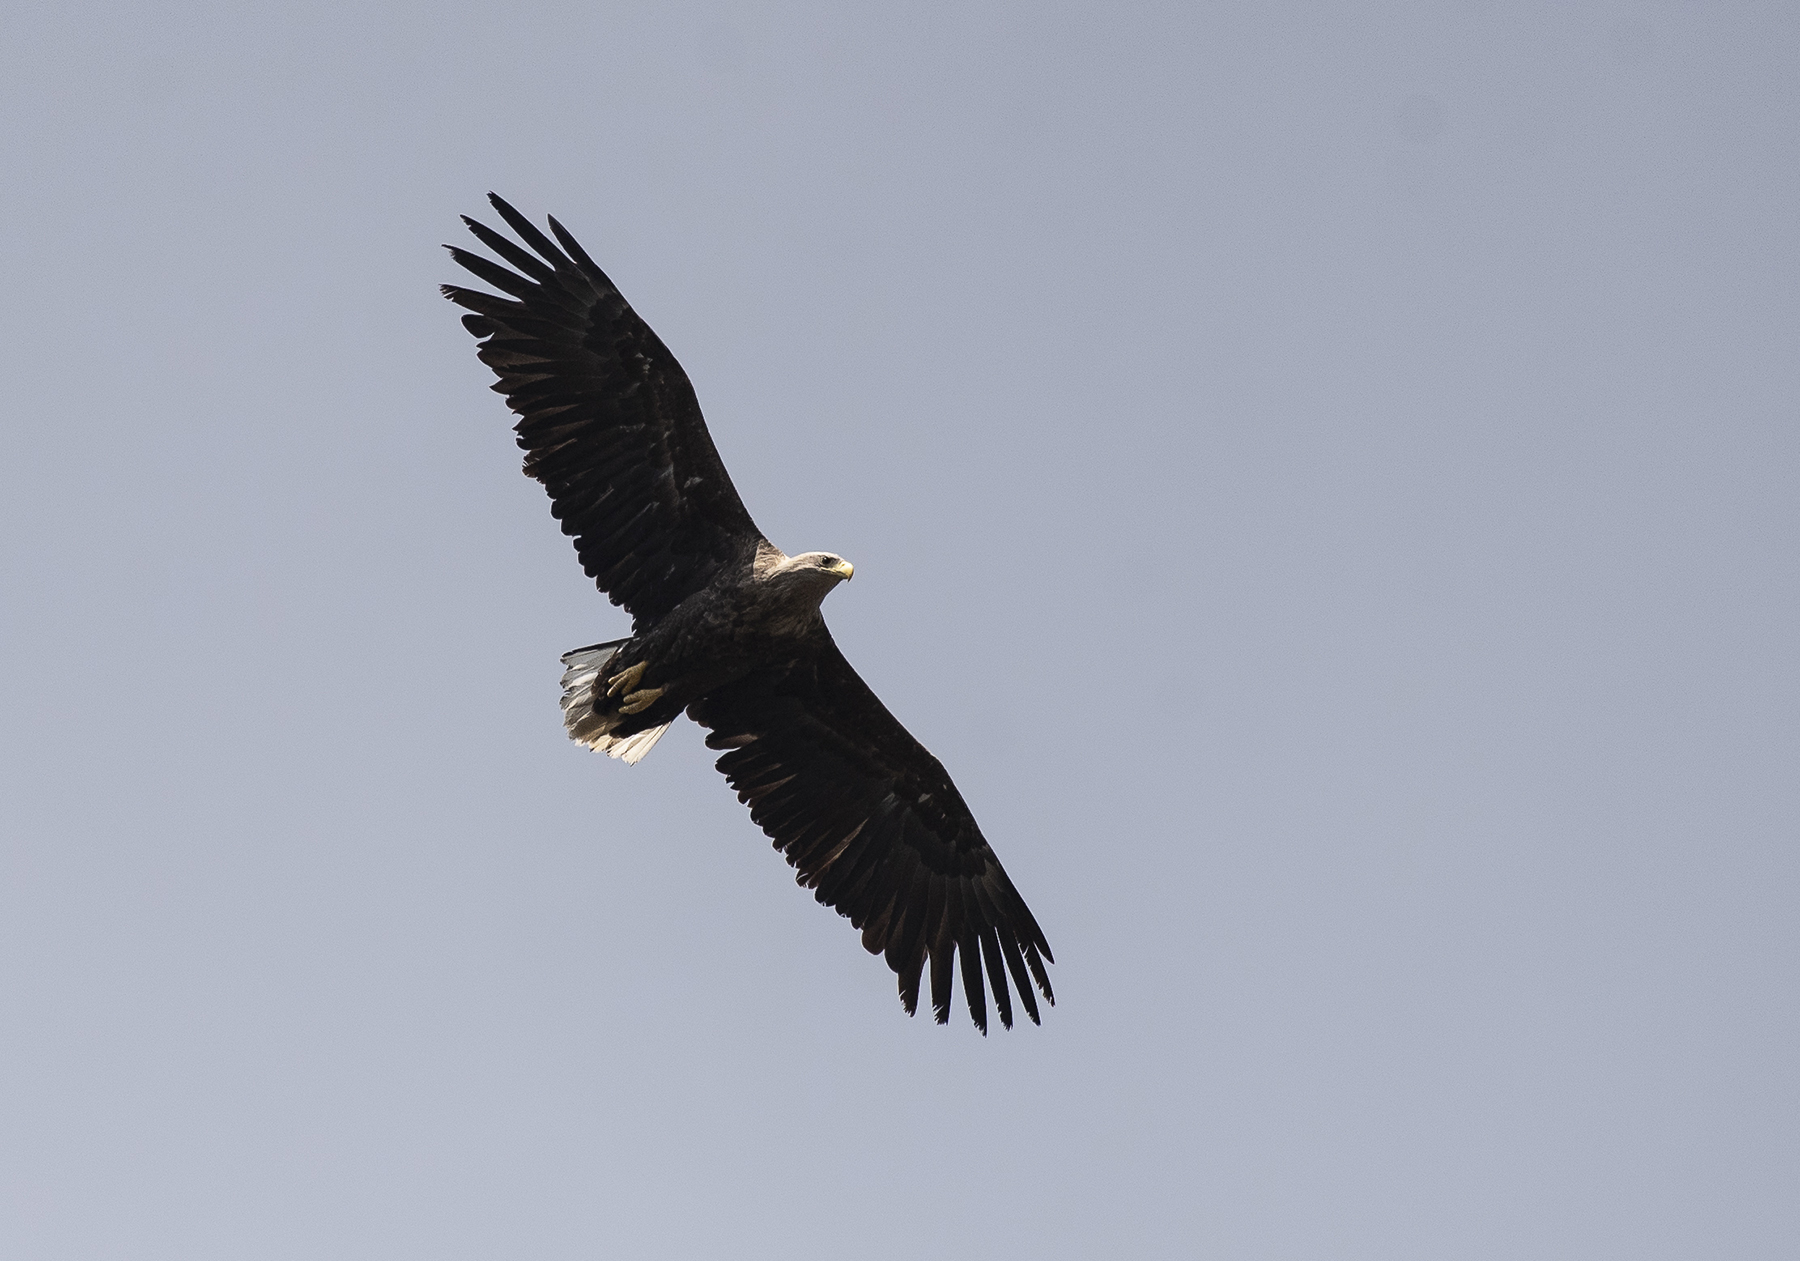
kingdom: Animalia
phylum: Chordata
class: Aves
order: Accipitriformes
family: Accipitridae
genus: Haliaeetus
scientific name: Haliaeetus albicilla
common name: White-tailed eagle
